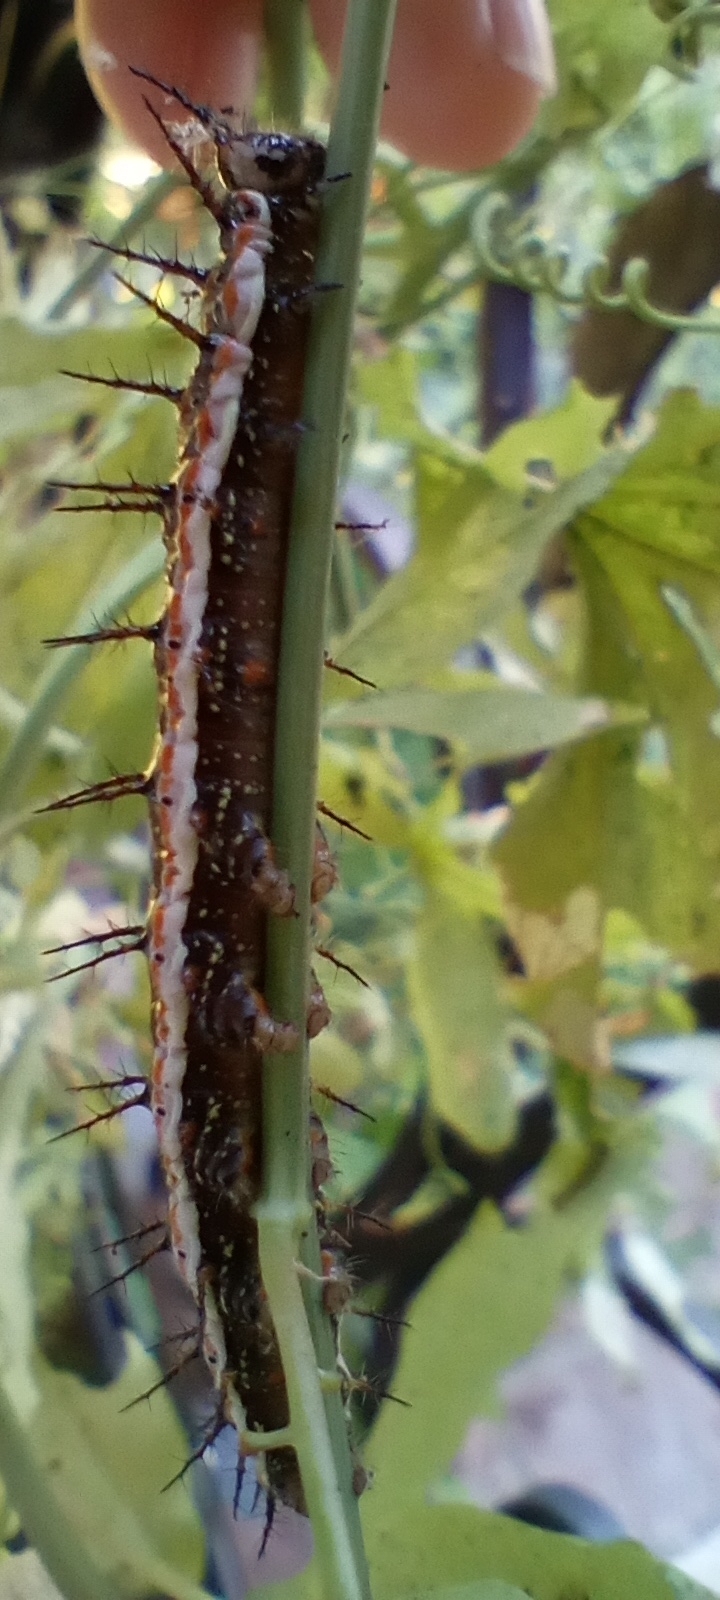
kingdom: Animalia
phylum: Arthropoda
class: Insecta
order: Lepidoptera
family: Nymphalidae
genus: Dione
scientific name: Dione vanillae
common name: Gulf fritillary
